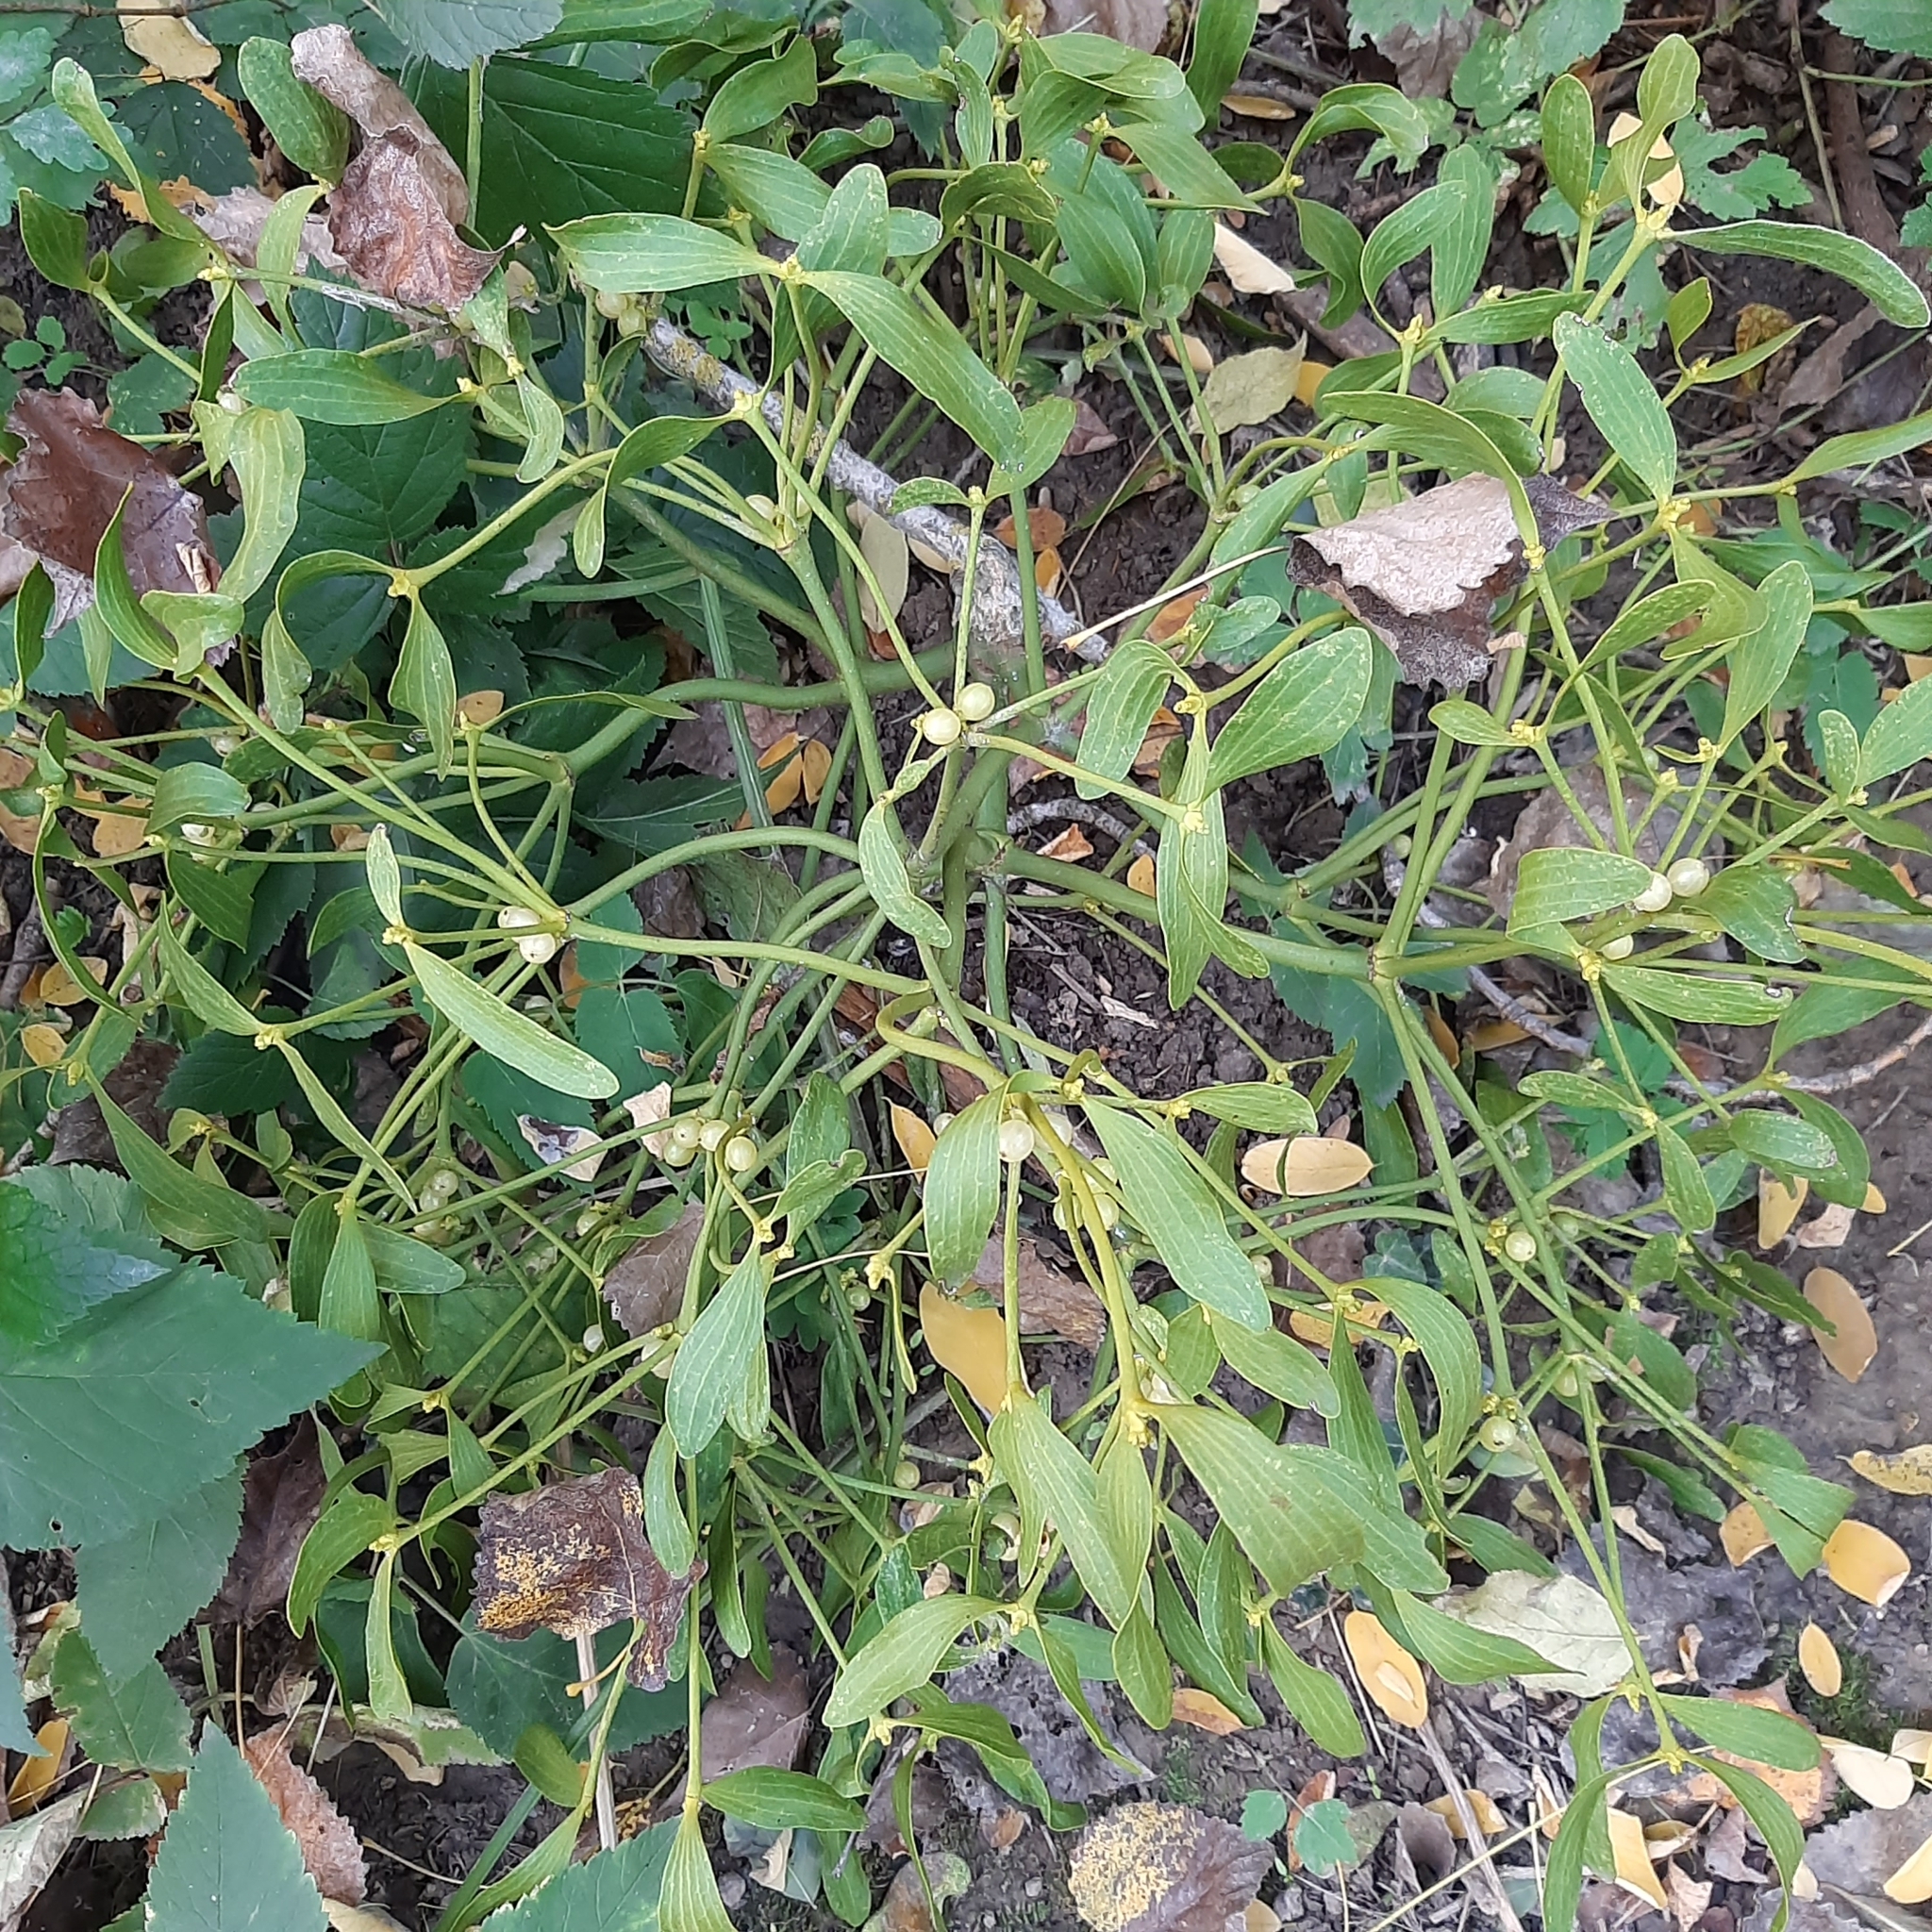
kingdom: Plantae
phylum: Tracheophyta
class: Magnoliopsida
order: Santalales
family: Viscaceae
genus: Viscum
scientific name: Viscum album
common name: Mistletoe
